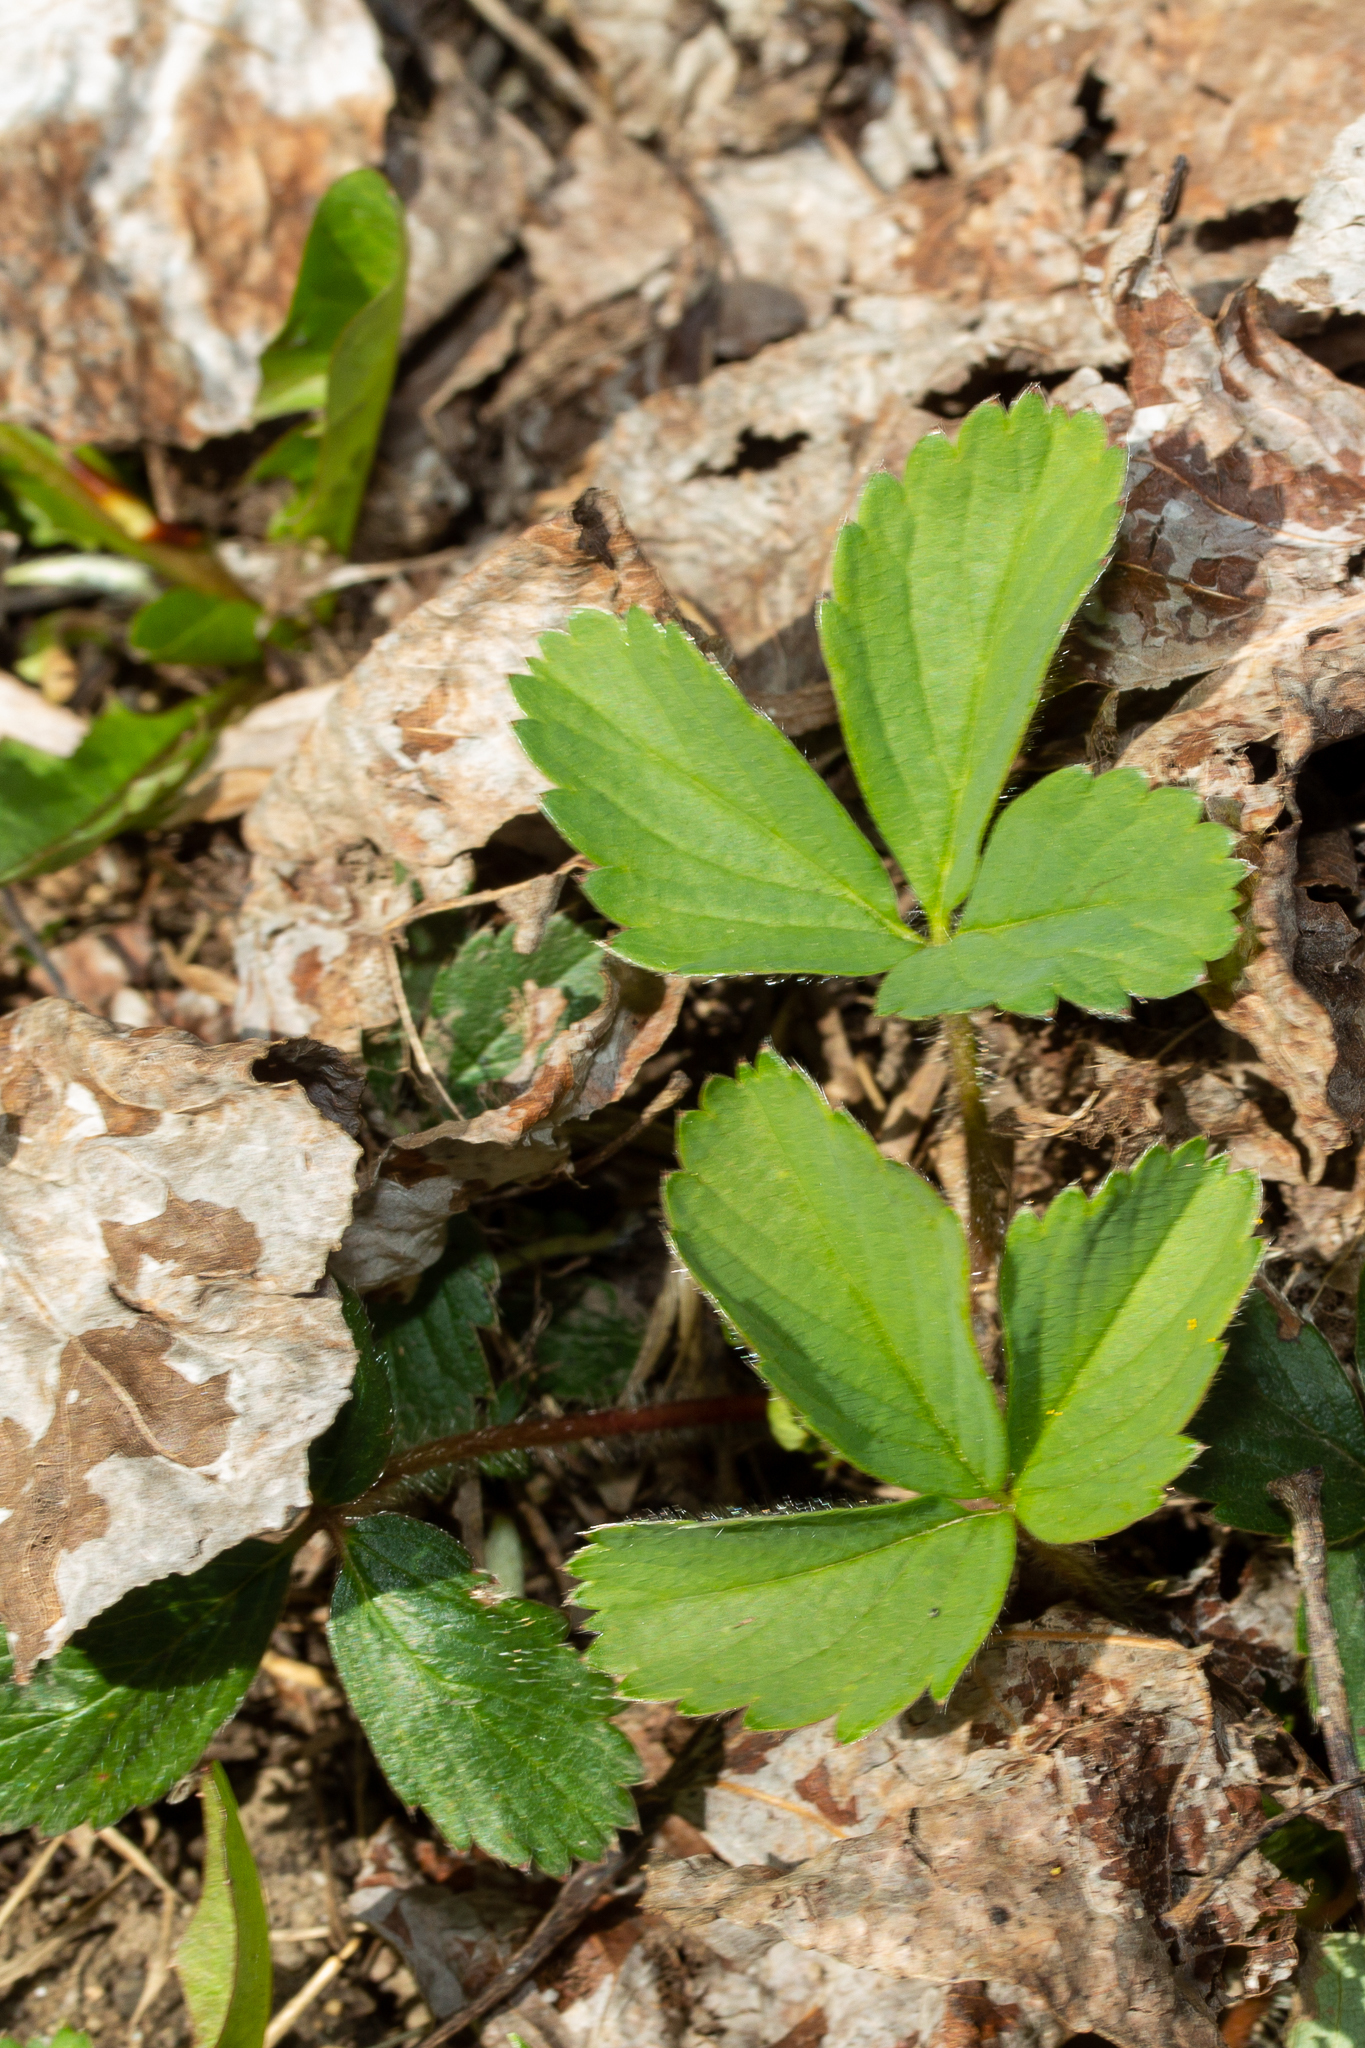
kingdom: Plantae
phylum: Tracheophyta
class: Magnoliopsida
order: Rosales
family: Rosaceae
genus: Fragaria
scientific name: Fragaria virginiana
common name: Thickleaved wild strawberry
